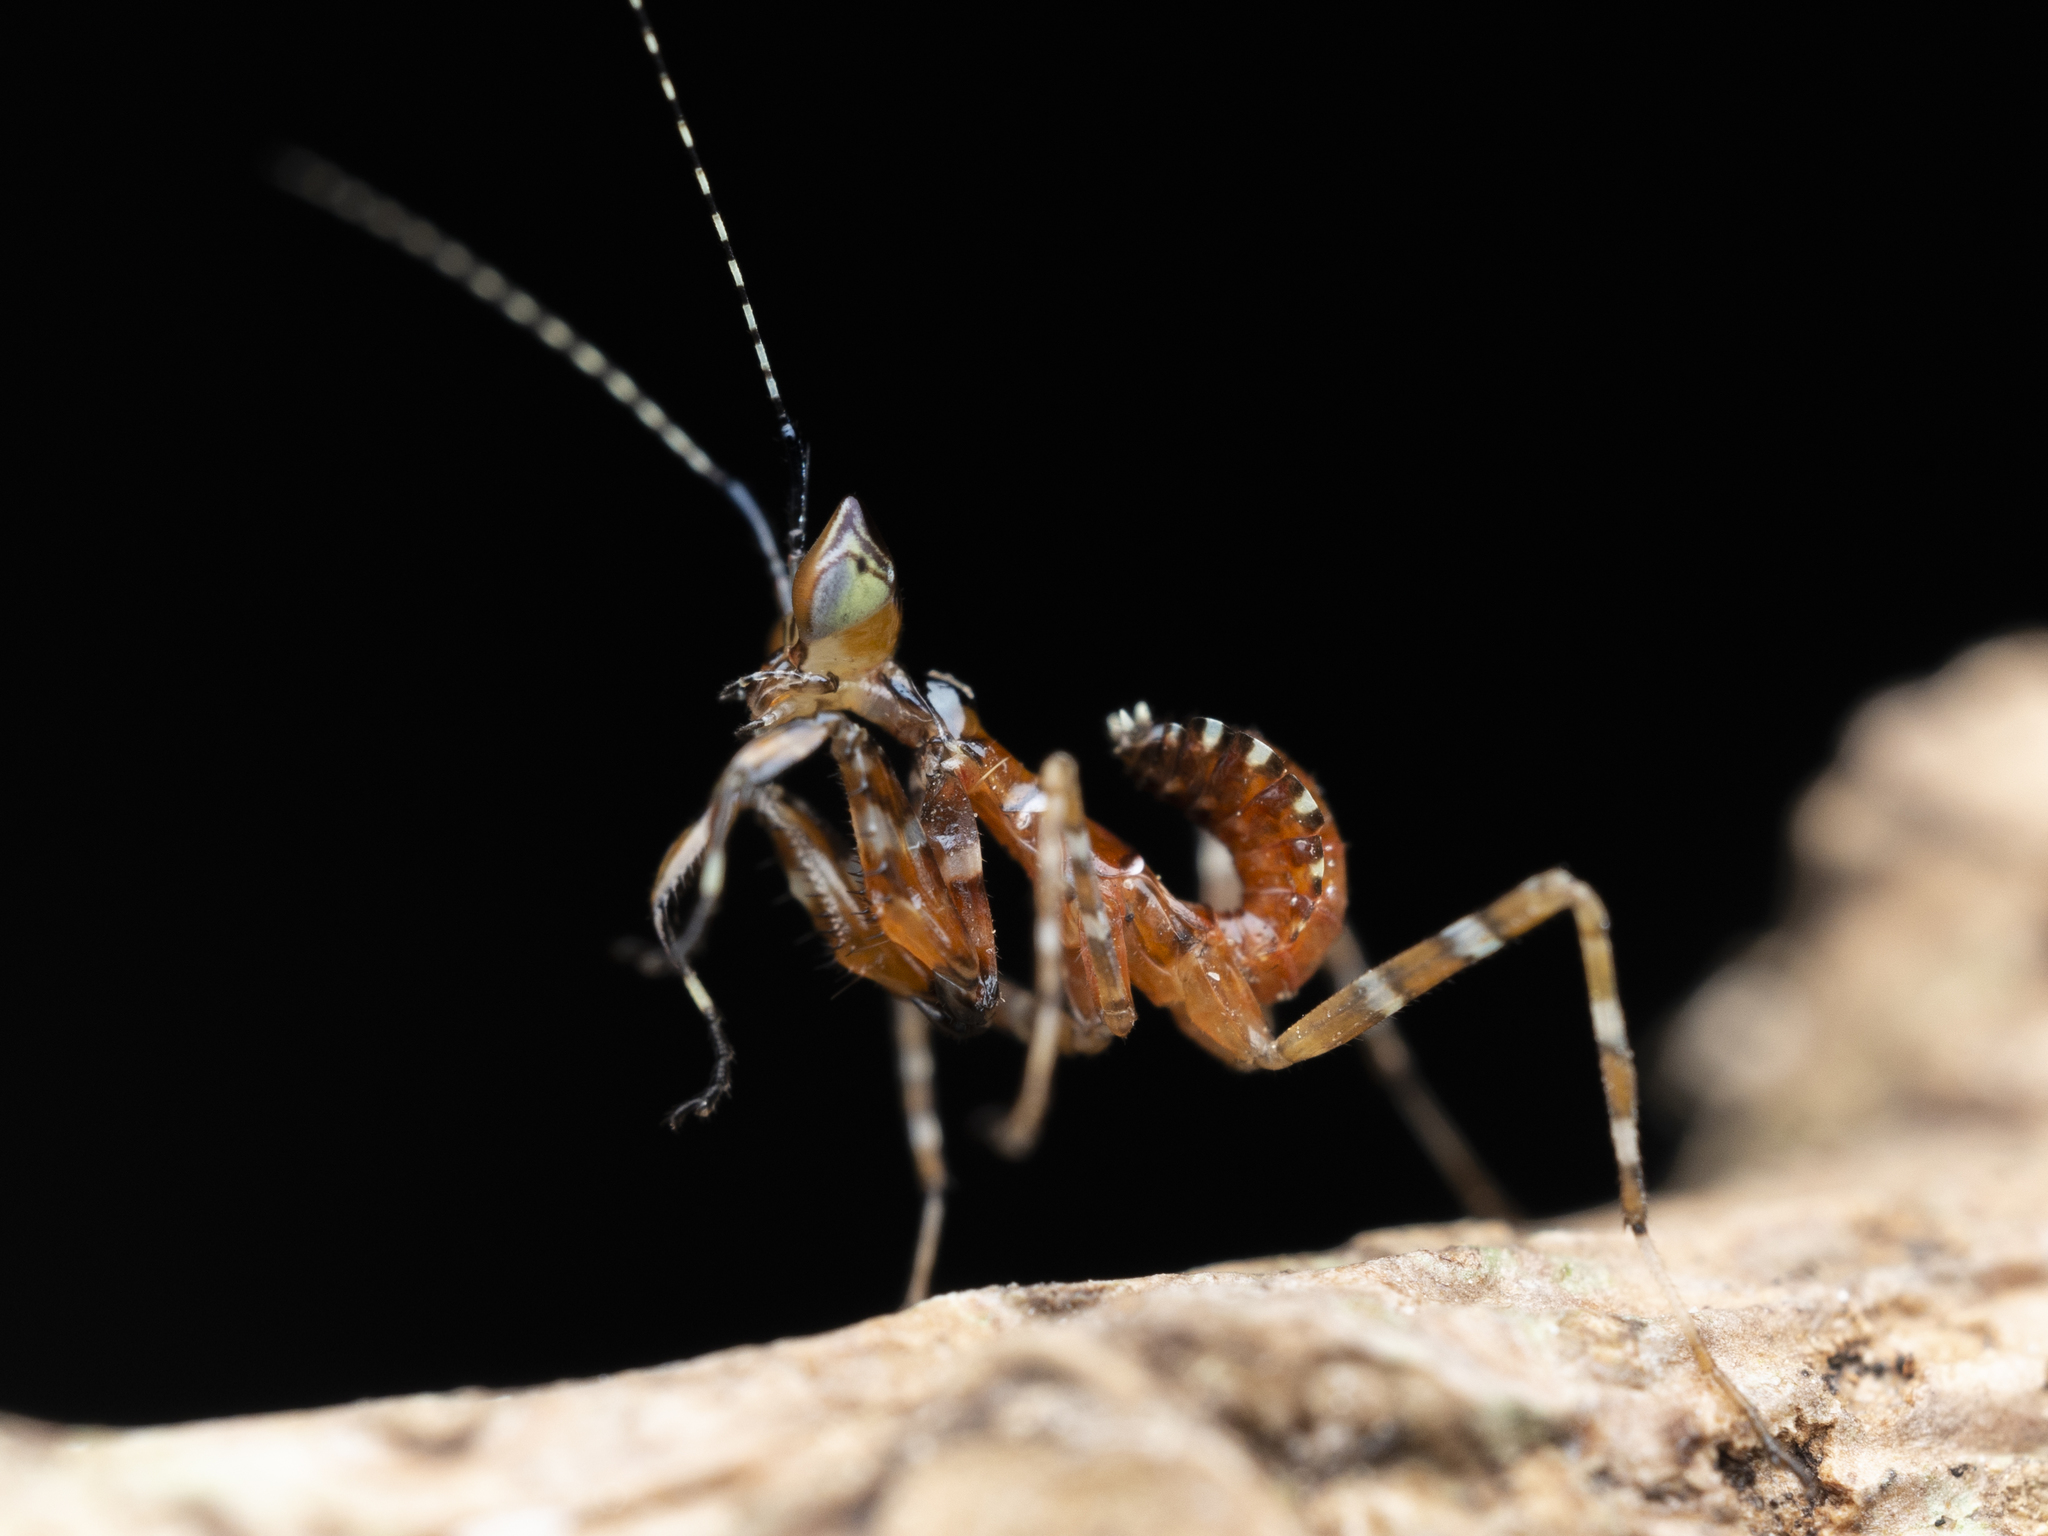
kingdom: Animalia
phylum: Arthropoda
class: Insecta
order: Mantodea
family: Hymenopodidae
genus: Creobroter
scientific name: Creobroter gemmatus
